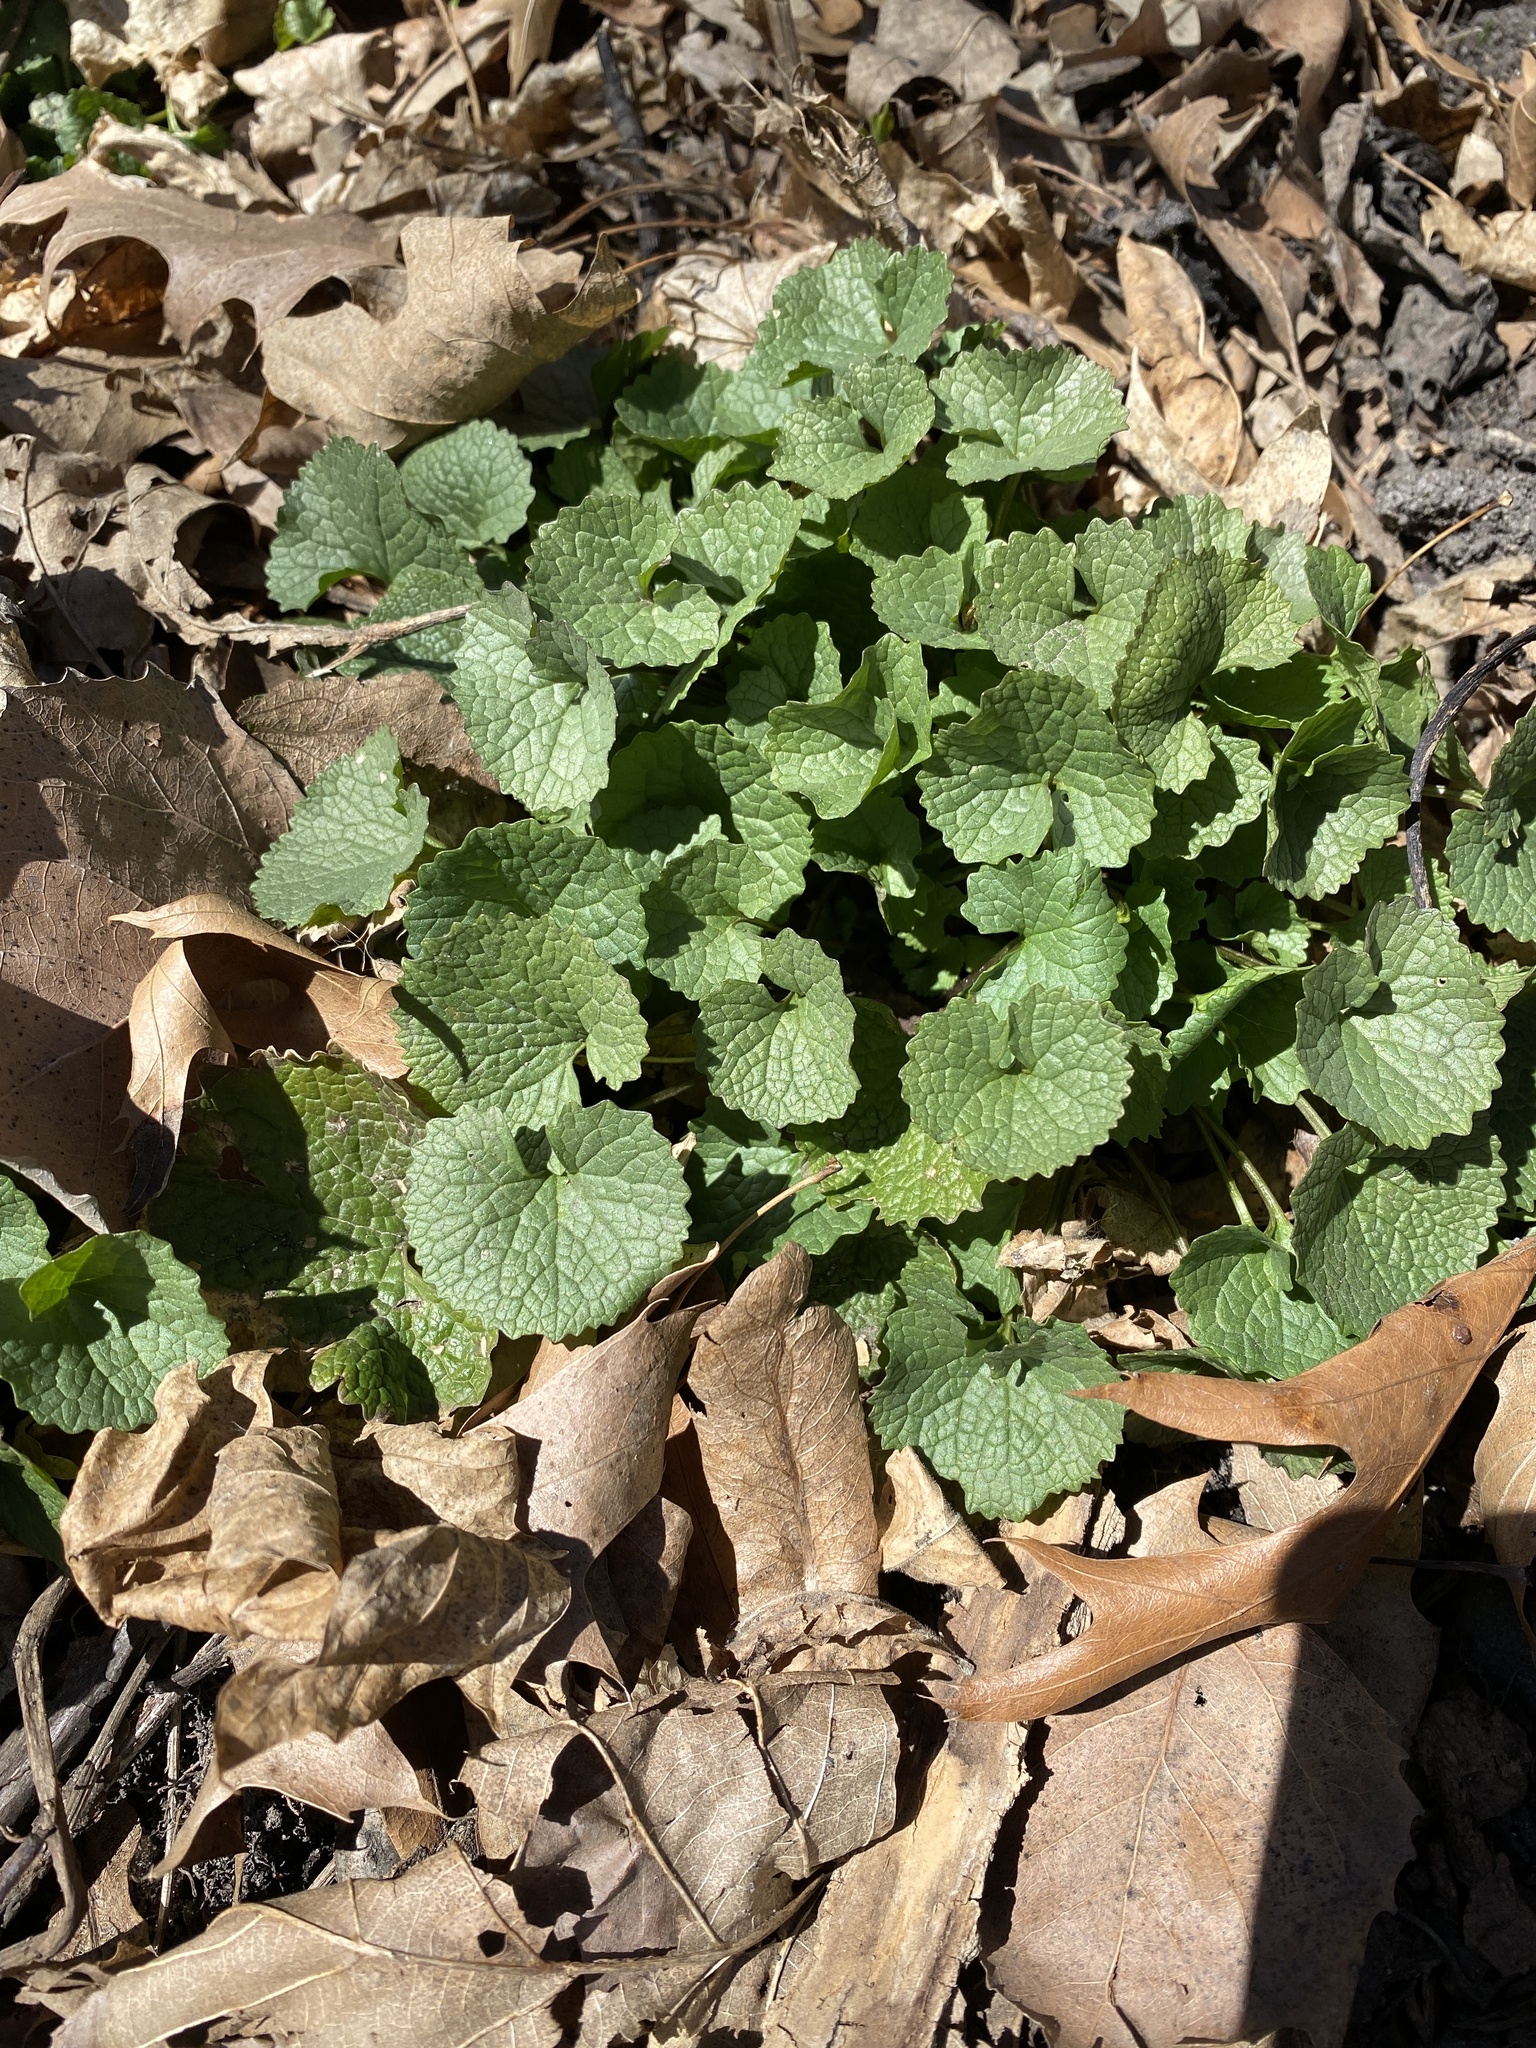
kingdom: Plantae
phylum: Tracheophyta
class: Magnoliopsida
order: Brassicales
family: Brassicaceae
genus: Alliaria
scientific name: Alliaria petiolata
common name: Garlic mustard
